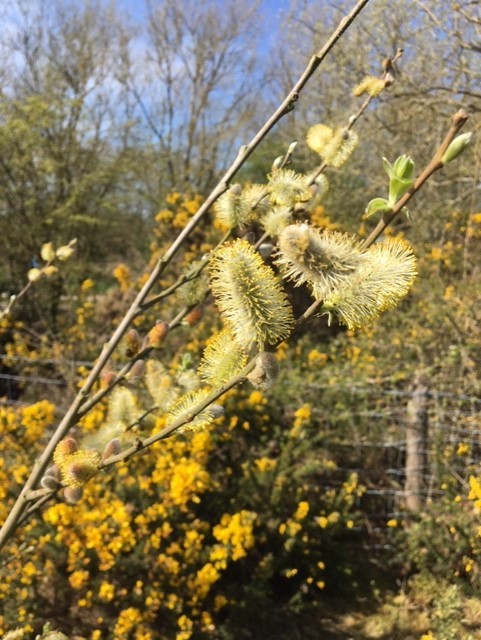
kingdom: Plantae
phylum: Tracheophyta
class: Magnoliopsida
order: Malpighiales
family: Salicaceae
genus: Salix
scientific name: Salix caprea
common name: Goat willow
